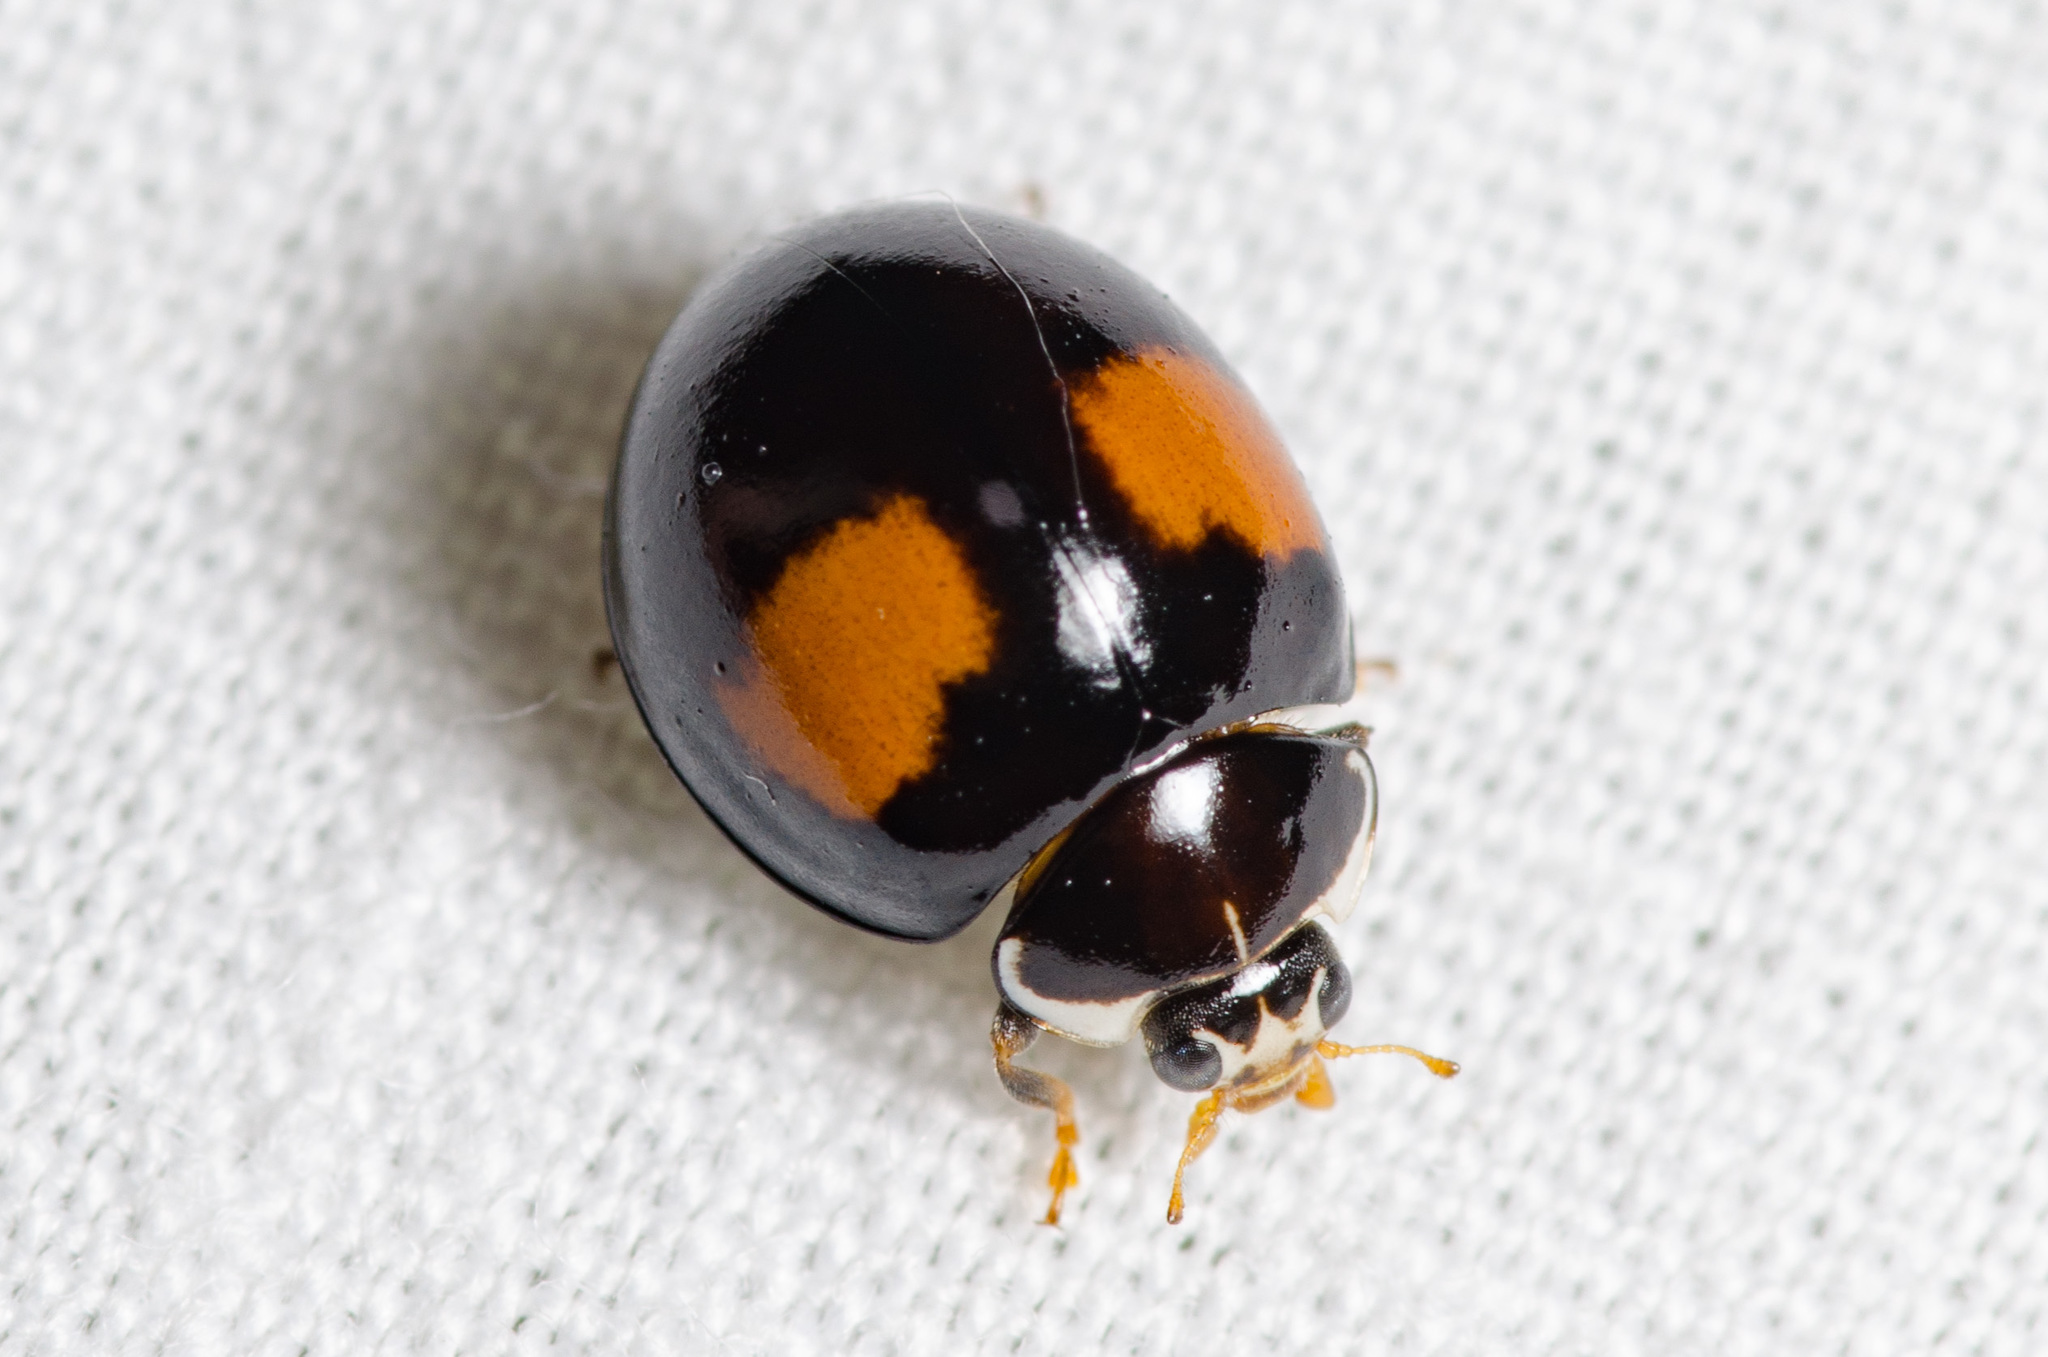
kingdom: Animalia
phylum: Arthropoda
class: Insecta
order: Coleoptera
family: Coccinellidae
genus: Olla
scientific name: Olla v-nigrum
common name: Ashy gray lady beetle
